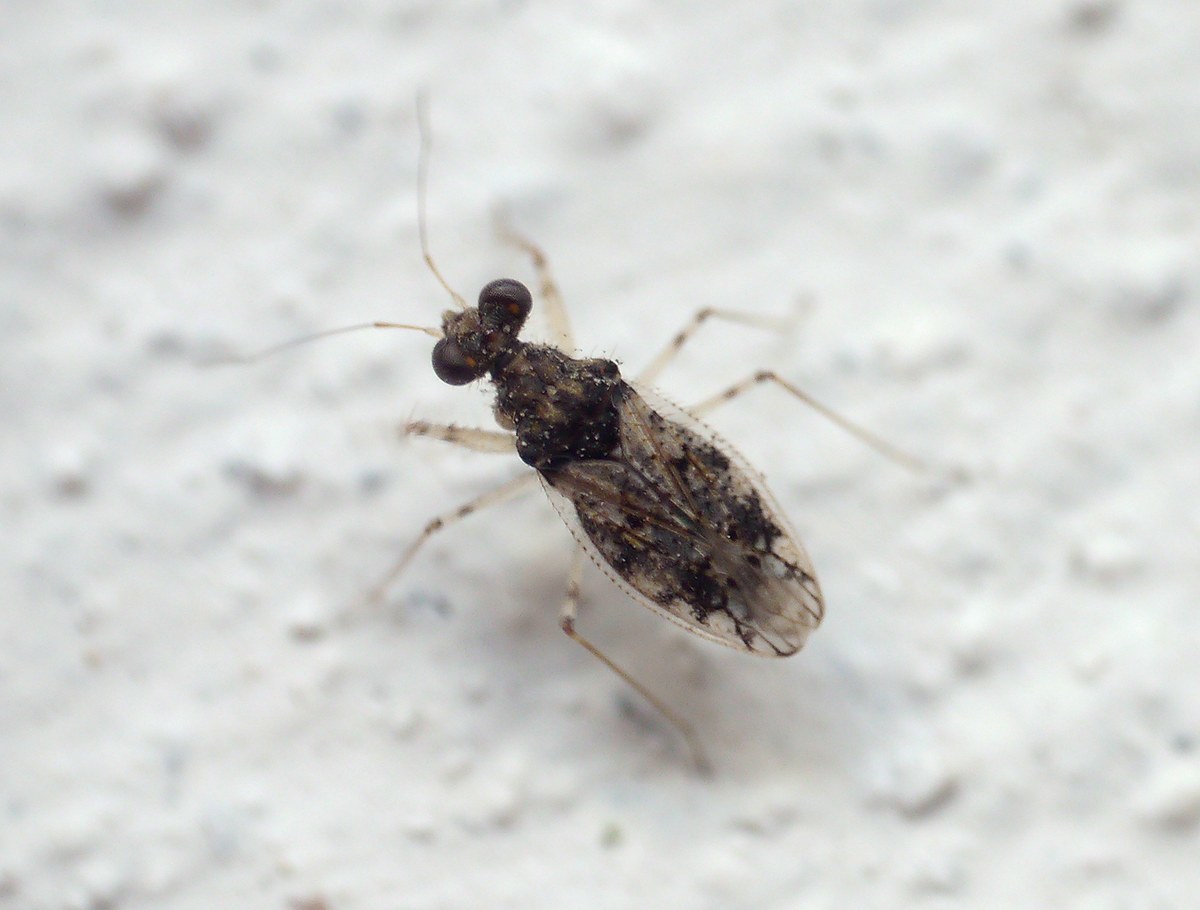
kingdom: Animalia
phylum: Arthropoda
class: Insecta
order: Hemiptera
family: Leptopodidae
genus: Leptopus
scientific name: Leptopus marmoratus
